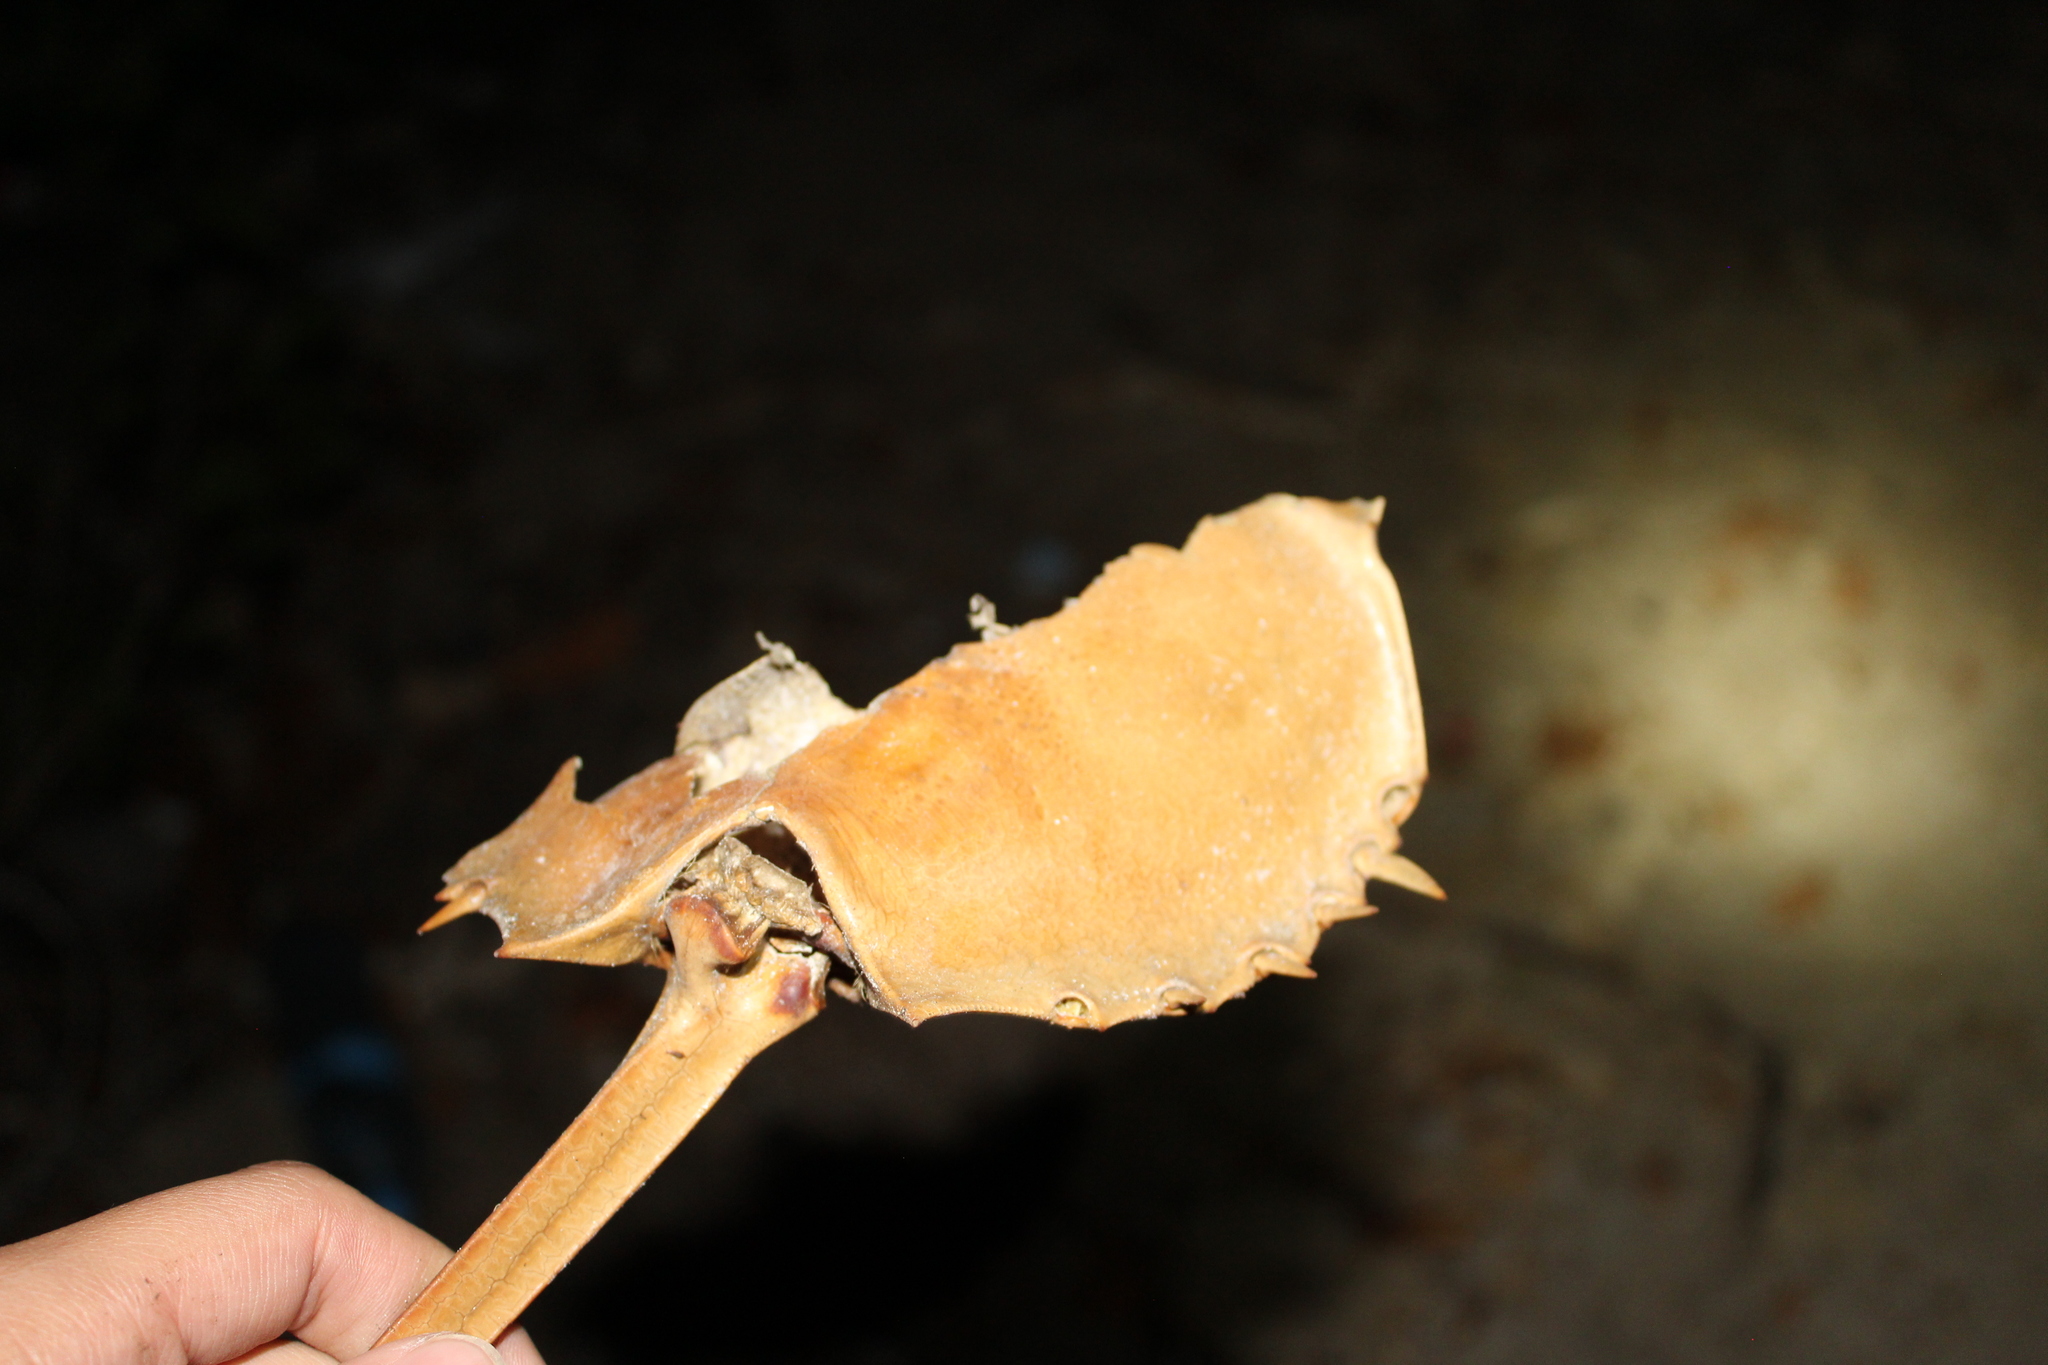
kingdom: Animalia
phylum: Arthropoda
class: Merostomata
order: Xiphosurida
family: Limulidae
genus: Limulus
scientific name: Limulus polyphemus
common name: Horseshoe crab
